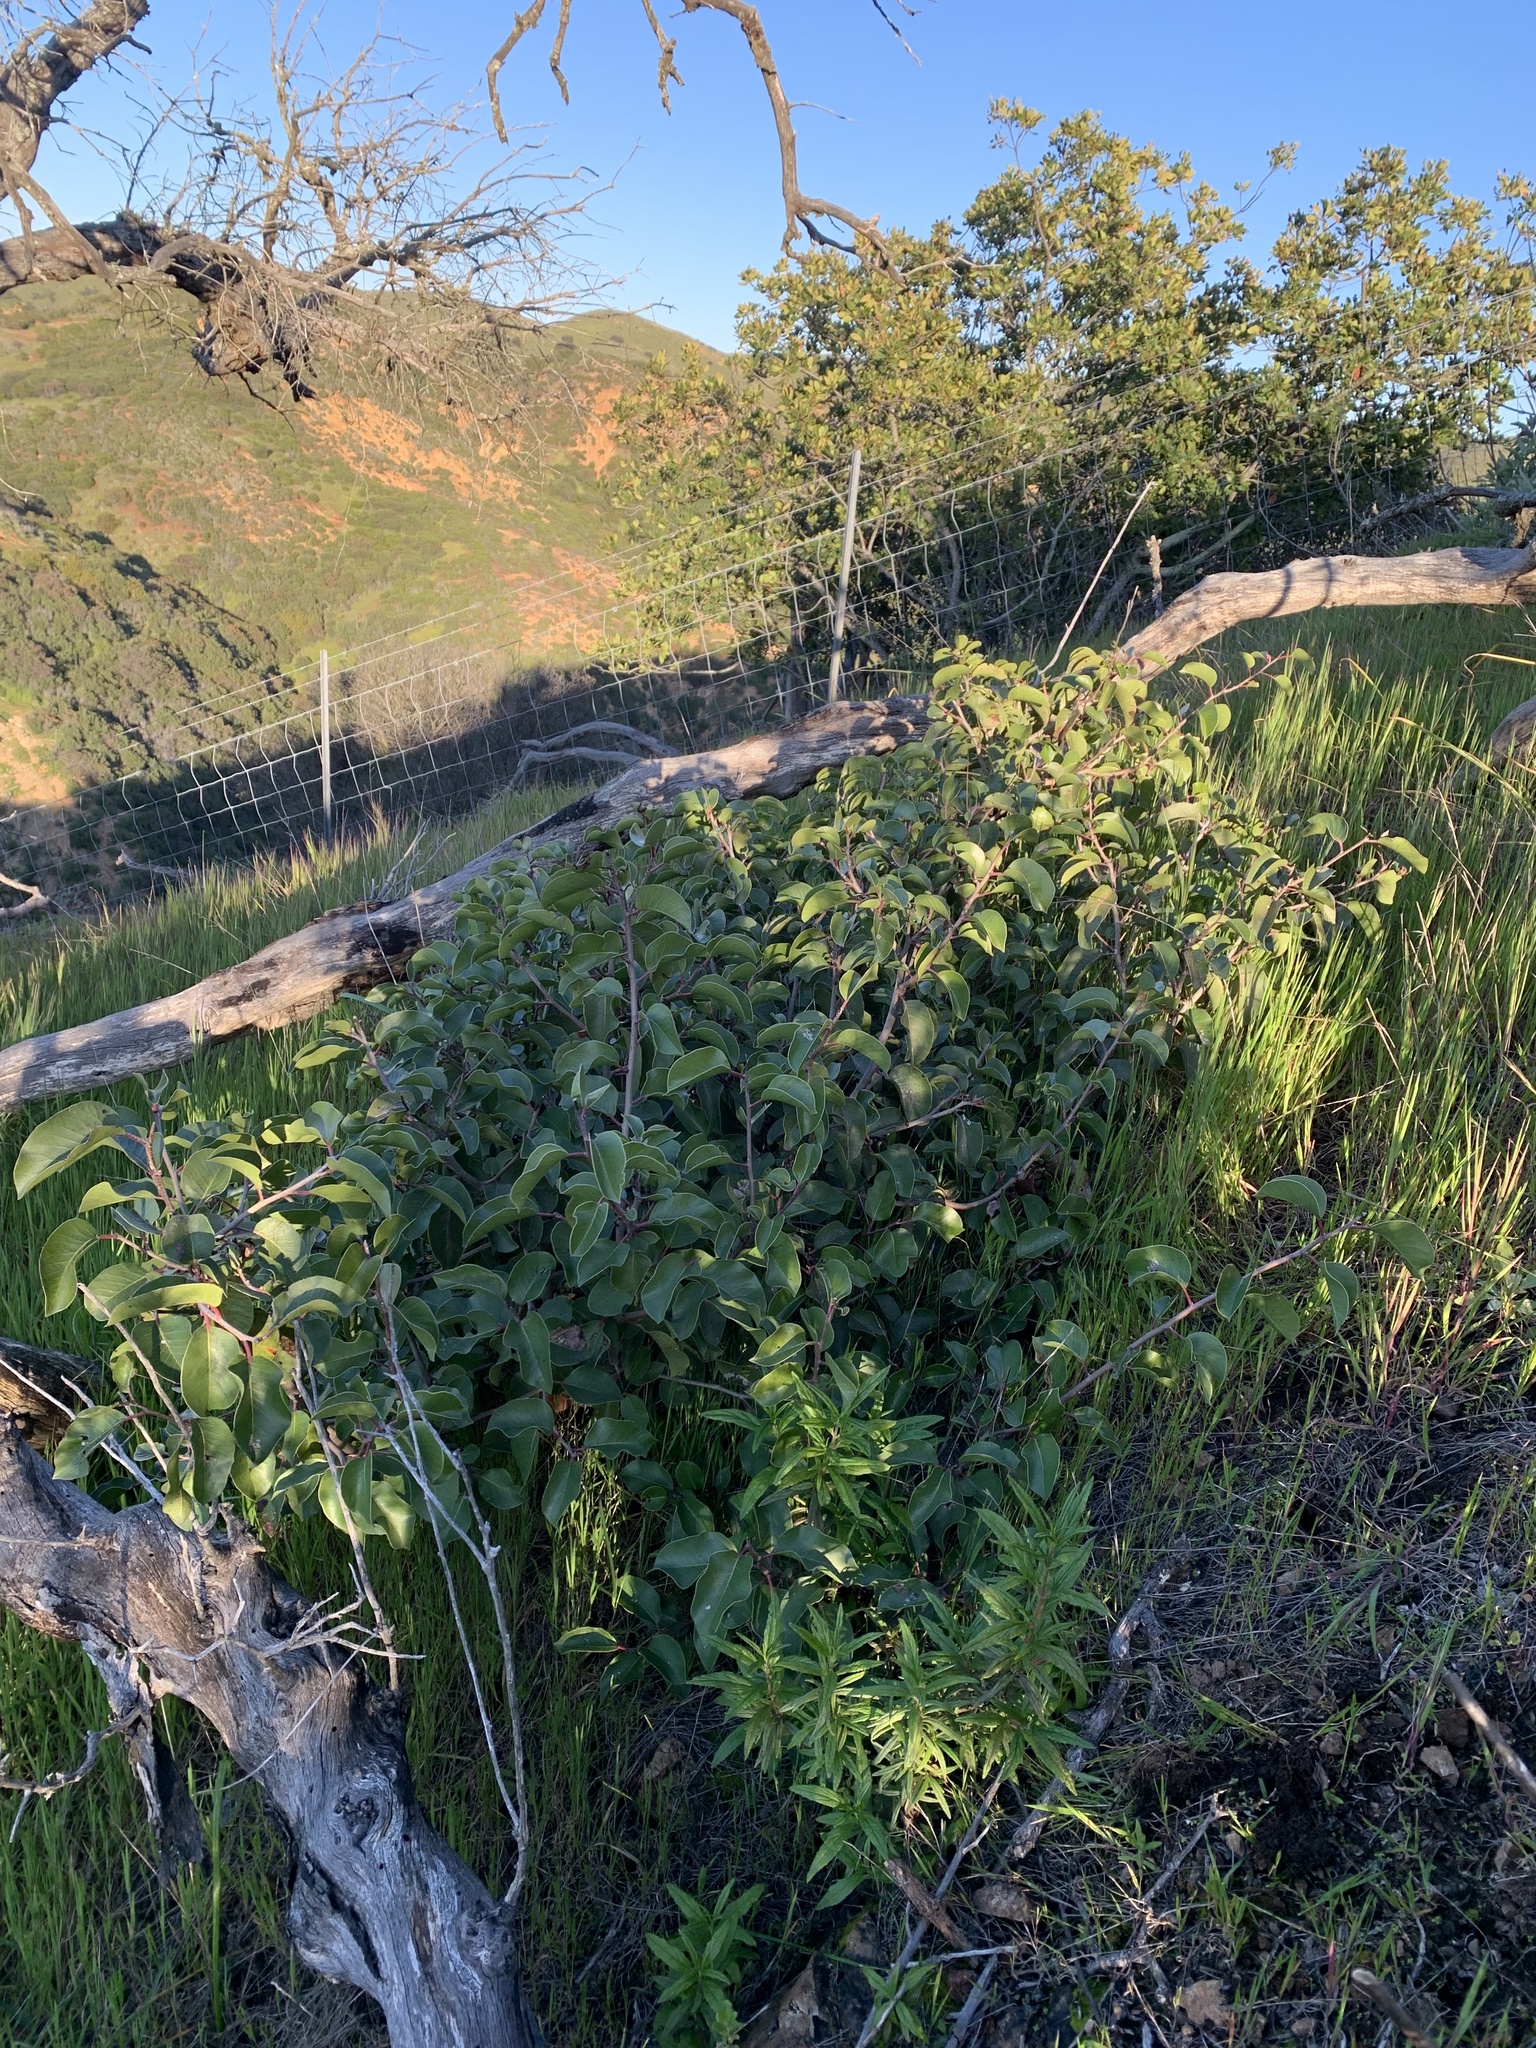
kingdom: Plantae
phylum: Tracheophyta
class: Magnoliopsida
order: Sapindales
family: Anacardiaceae
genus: Rhus
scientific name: Rhus ovata
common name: Sugar sumac
